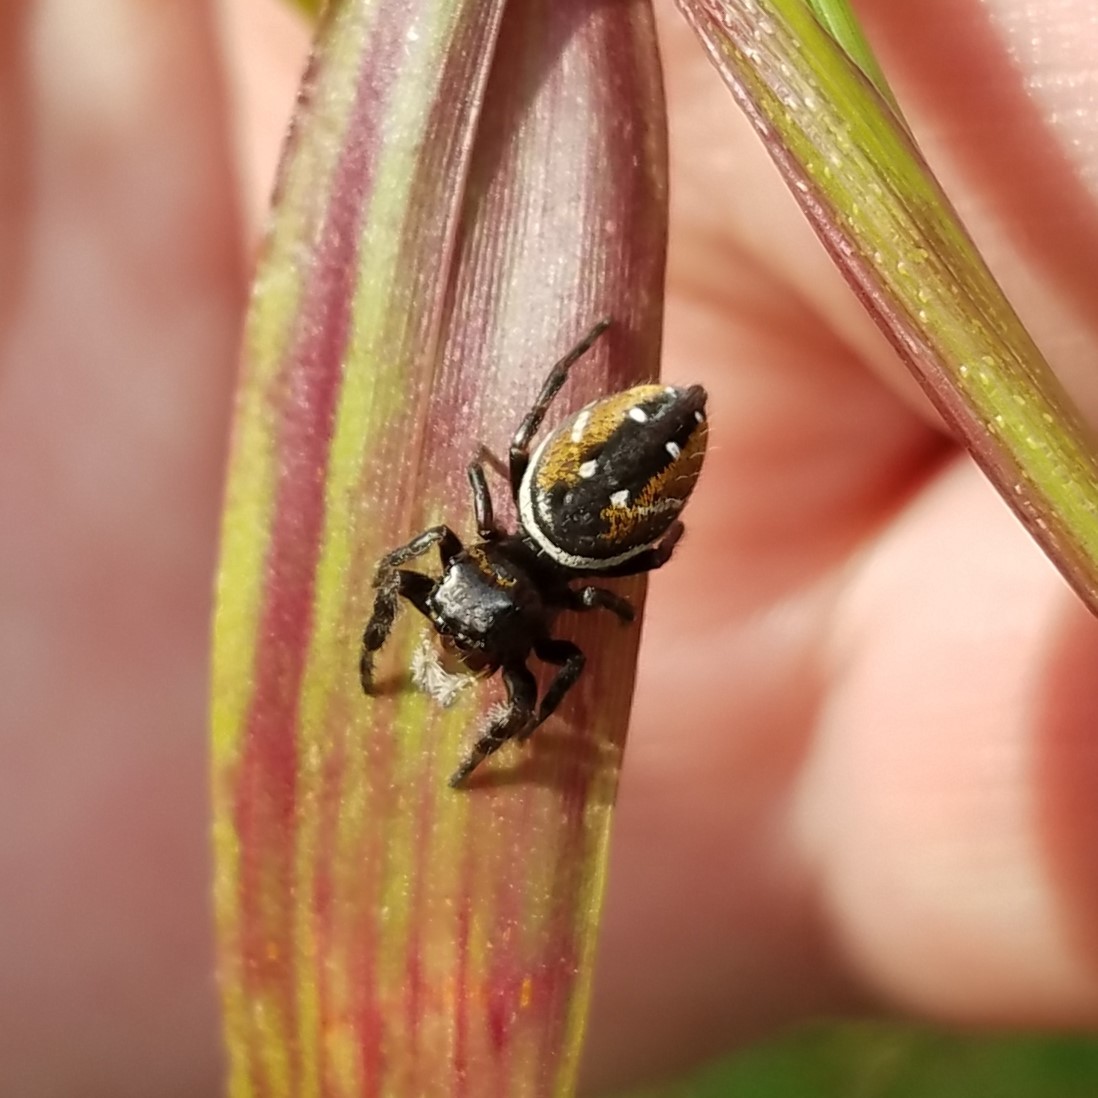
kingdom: Animalia
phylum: Arthropoda
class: Arachnida
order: Araneae
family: Salticidae
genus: Phidippus
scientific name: Phidippus clarus
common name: Brilliant jumping spider
